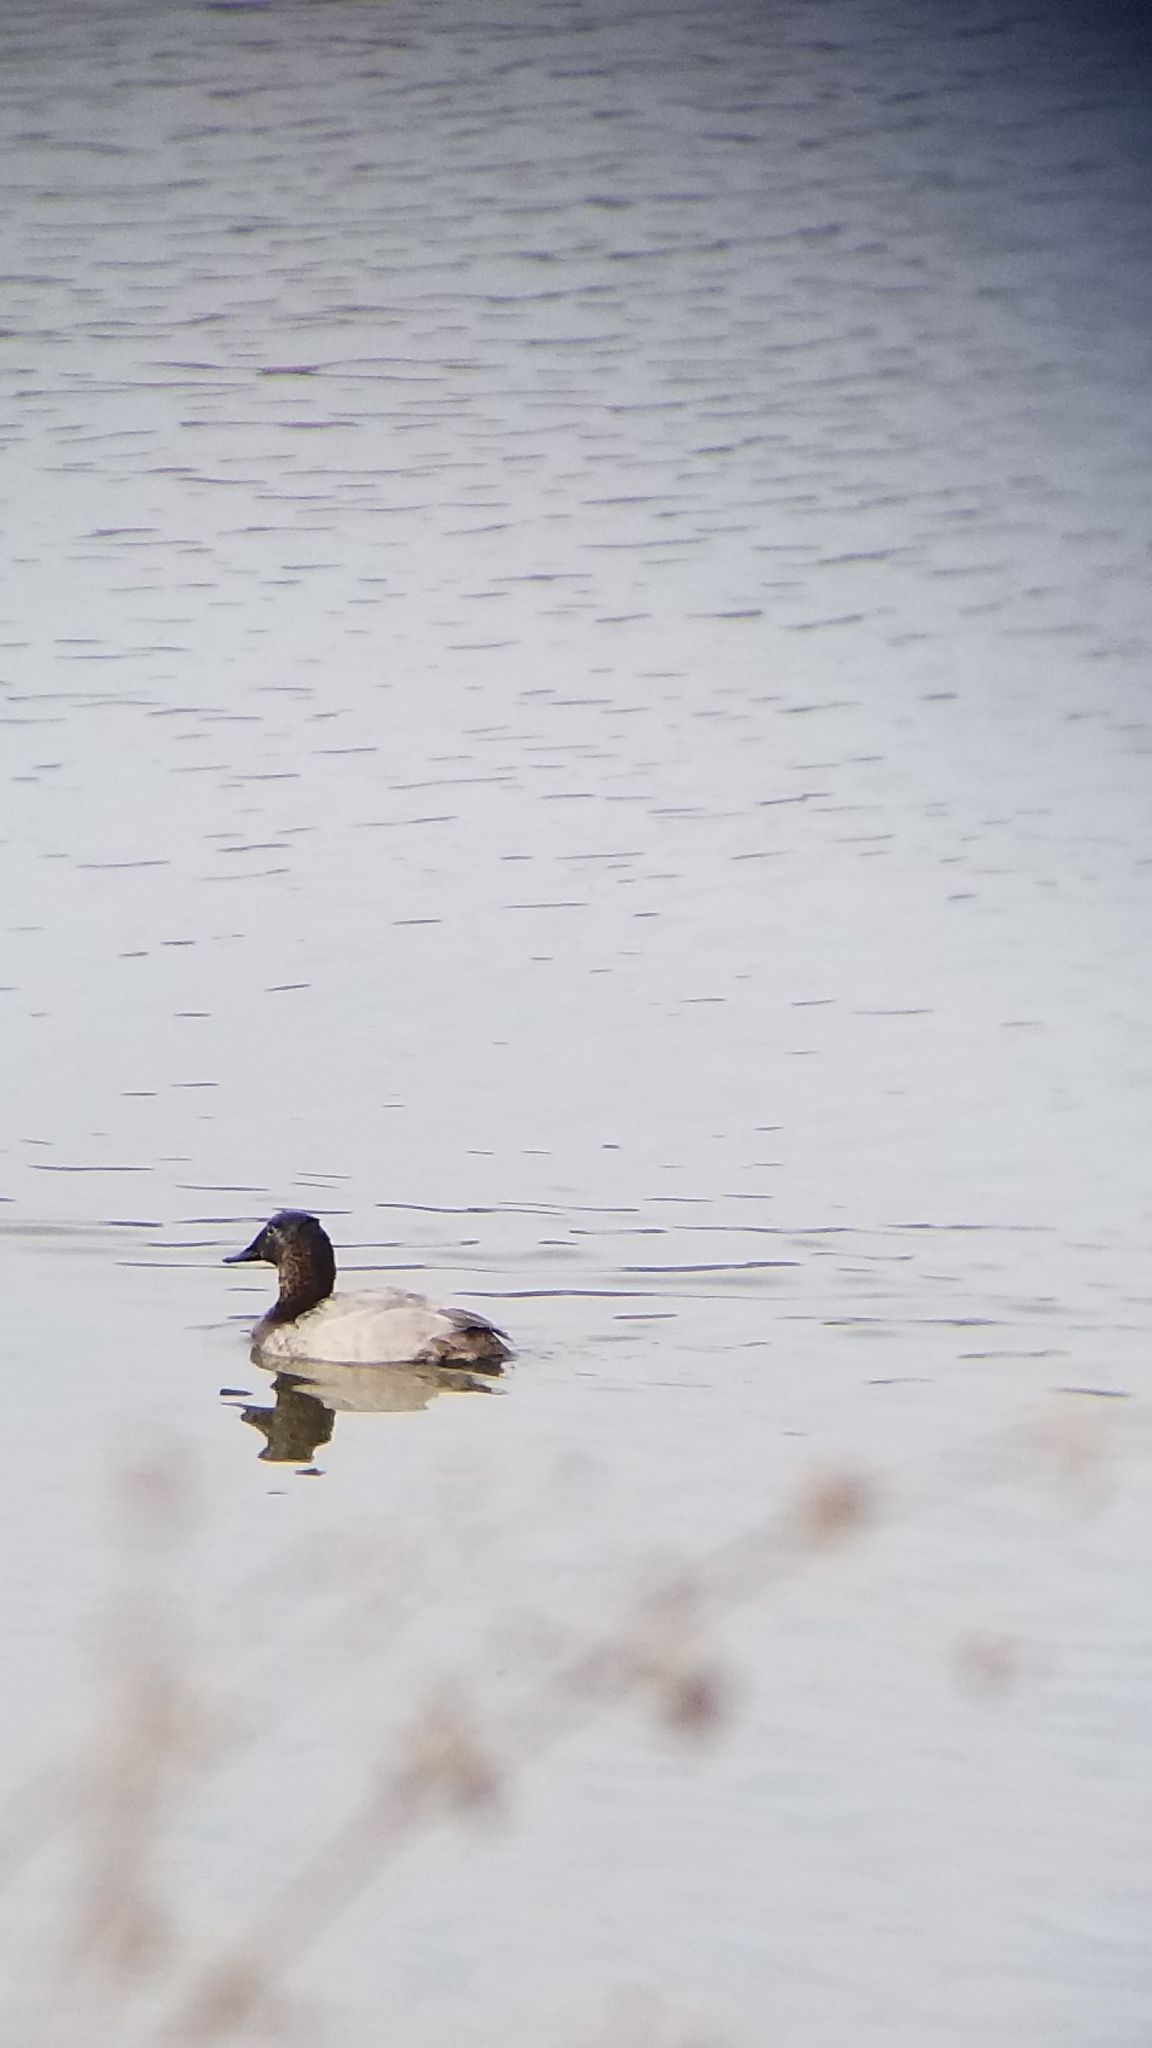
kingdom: Animalia
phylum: Chordata
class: Aves
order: Anseriformes
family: Anatidae
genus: Aythya
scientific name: Aythya valisineria
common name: Canvasback
